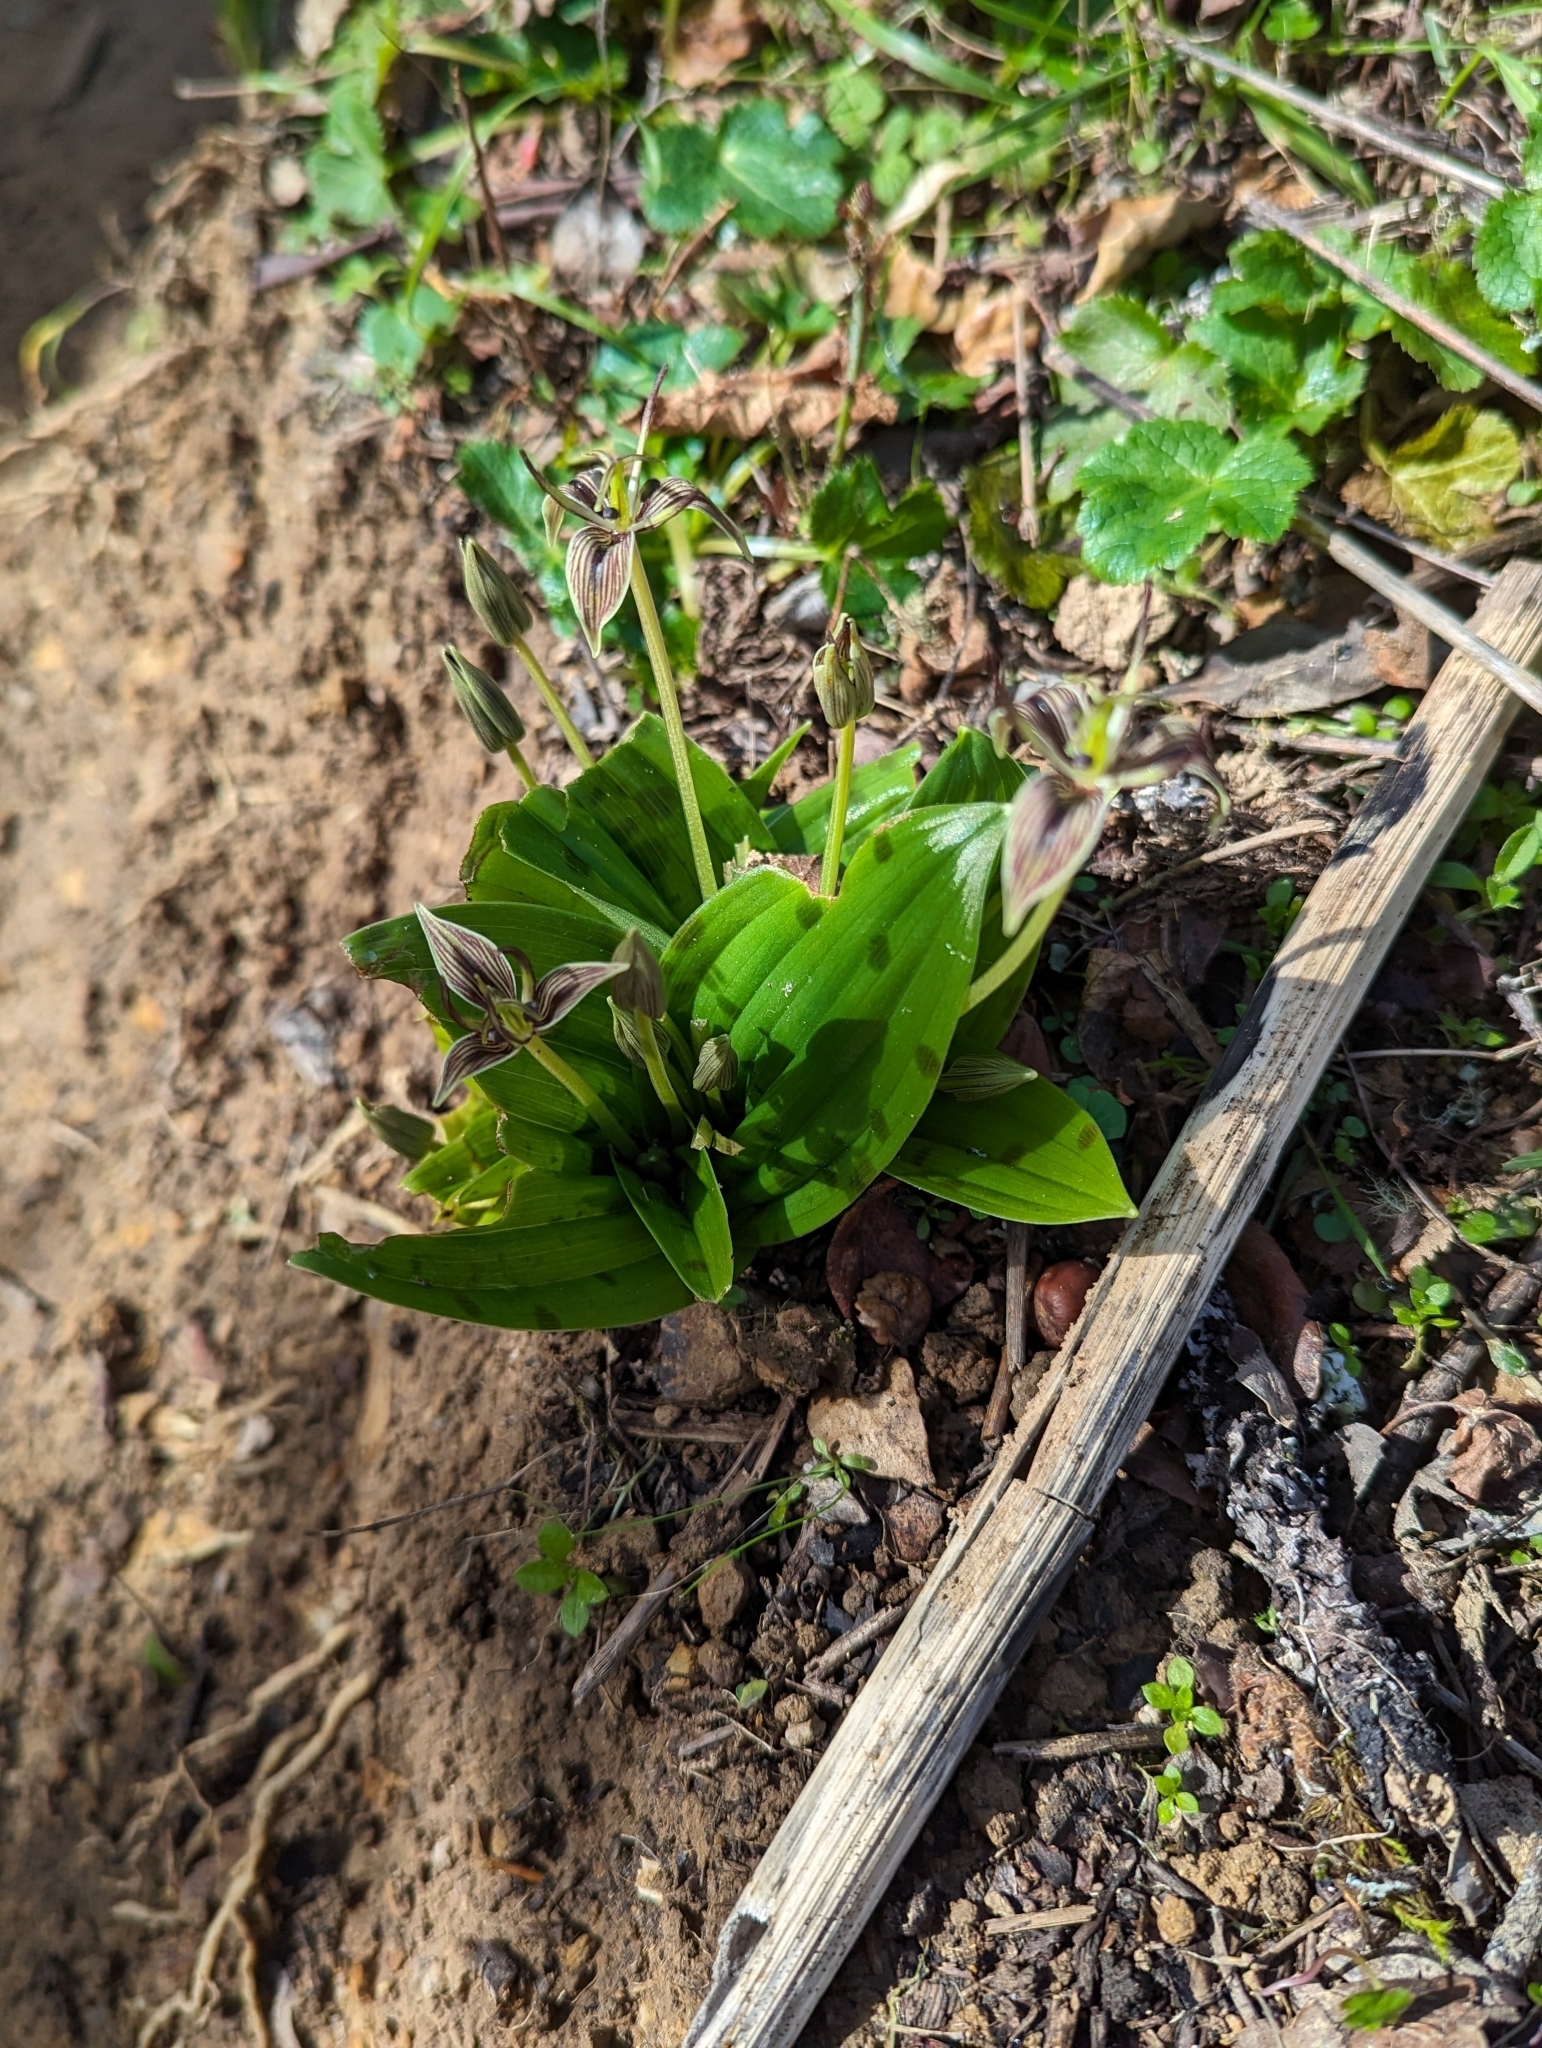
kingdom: Plantae
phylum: Tracheophyta
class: Liliopsida
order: Liliales
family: Liliaceae
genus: Scoliopus
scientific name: Scoliopus bigelovii
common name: Foetid adder's-tongue
